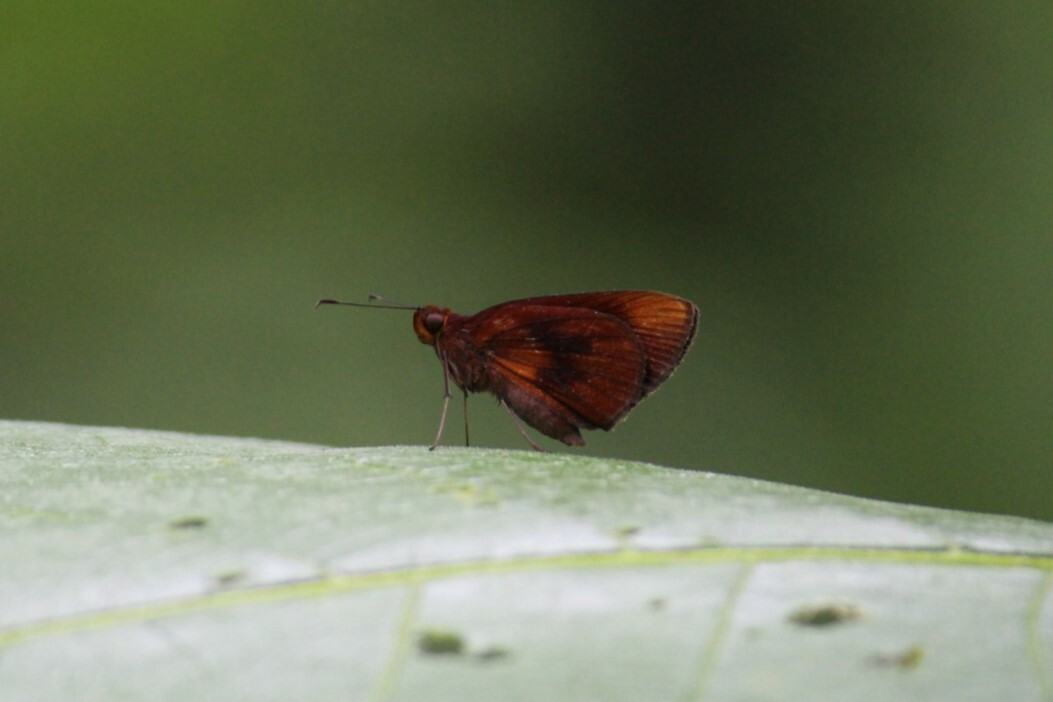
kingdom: Animalia
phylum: Arthropoda
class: Insecta
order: Lepidoptera
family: Hesperiidae
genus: Miltomiges
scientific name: Miltomiges cinnamomea
